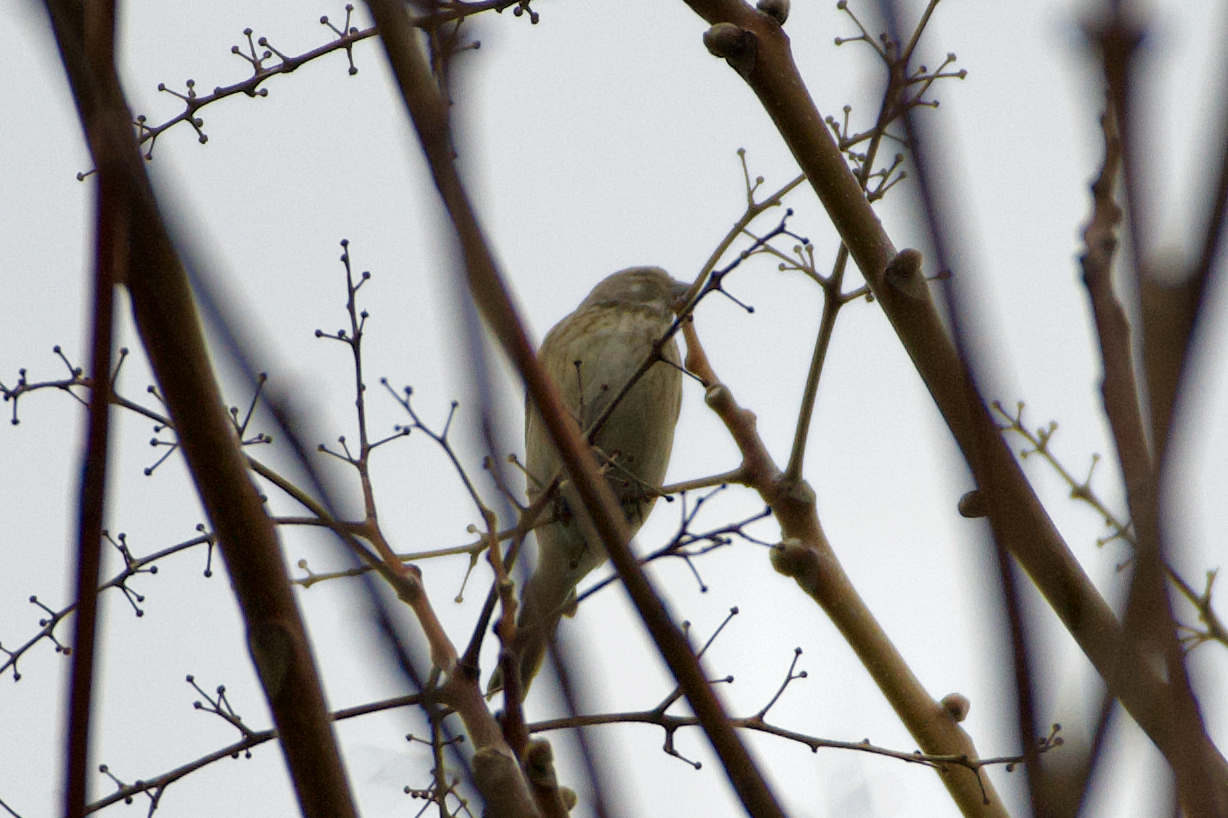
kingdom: Animalia
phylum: Chordata
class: Aves
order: Passeriformes
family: Fringillidae
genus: Linaria
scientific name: Linaria cannabina
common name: Common linnet
